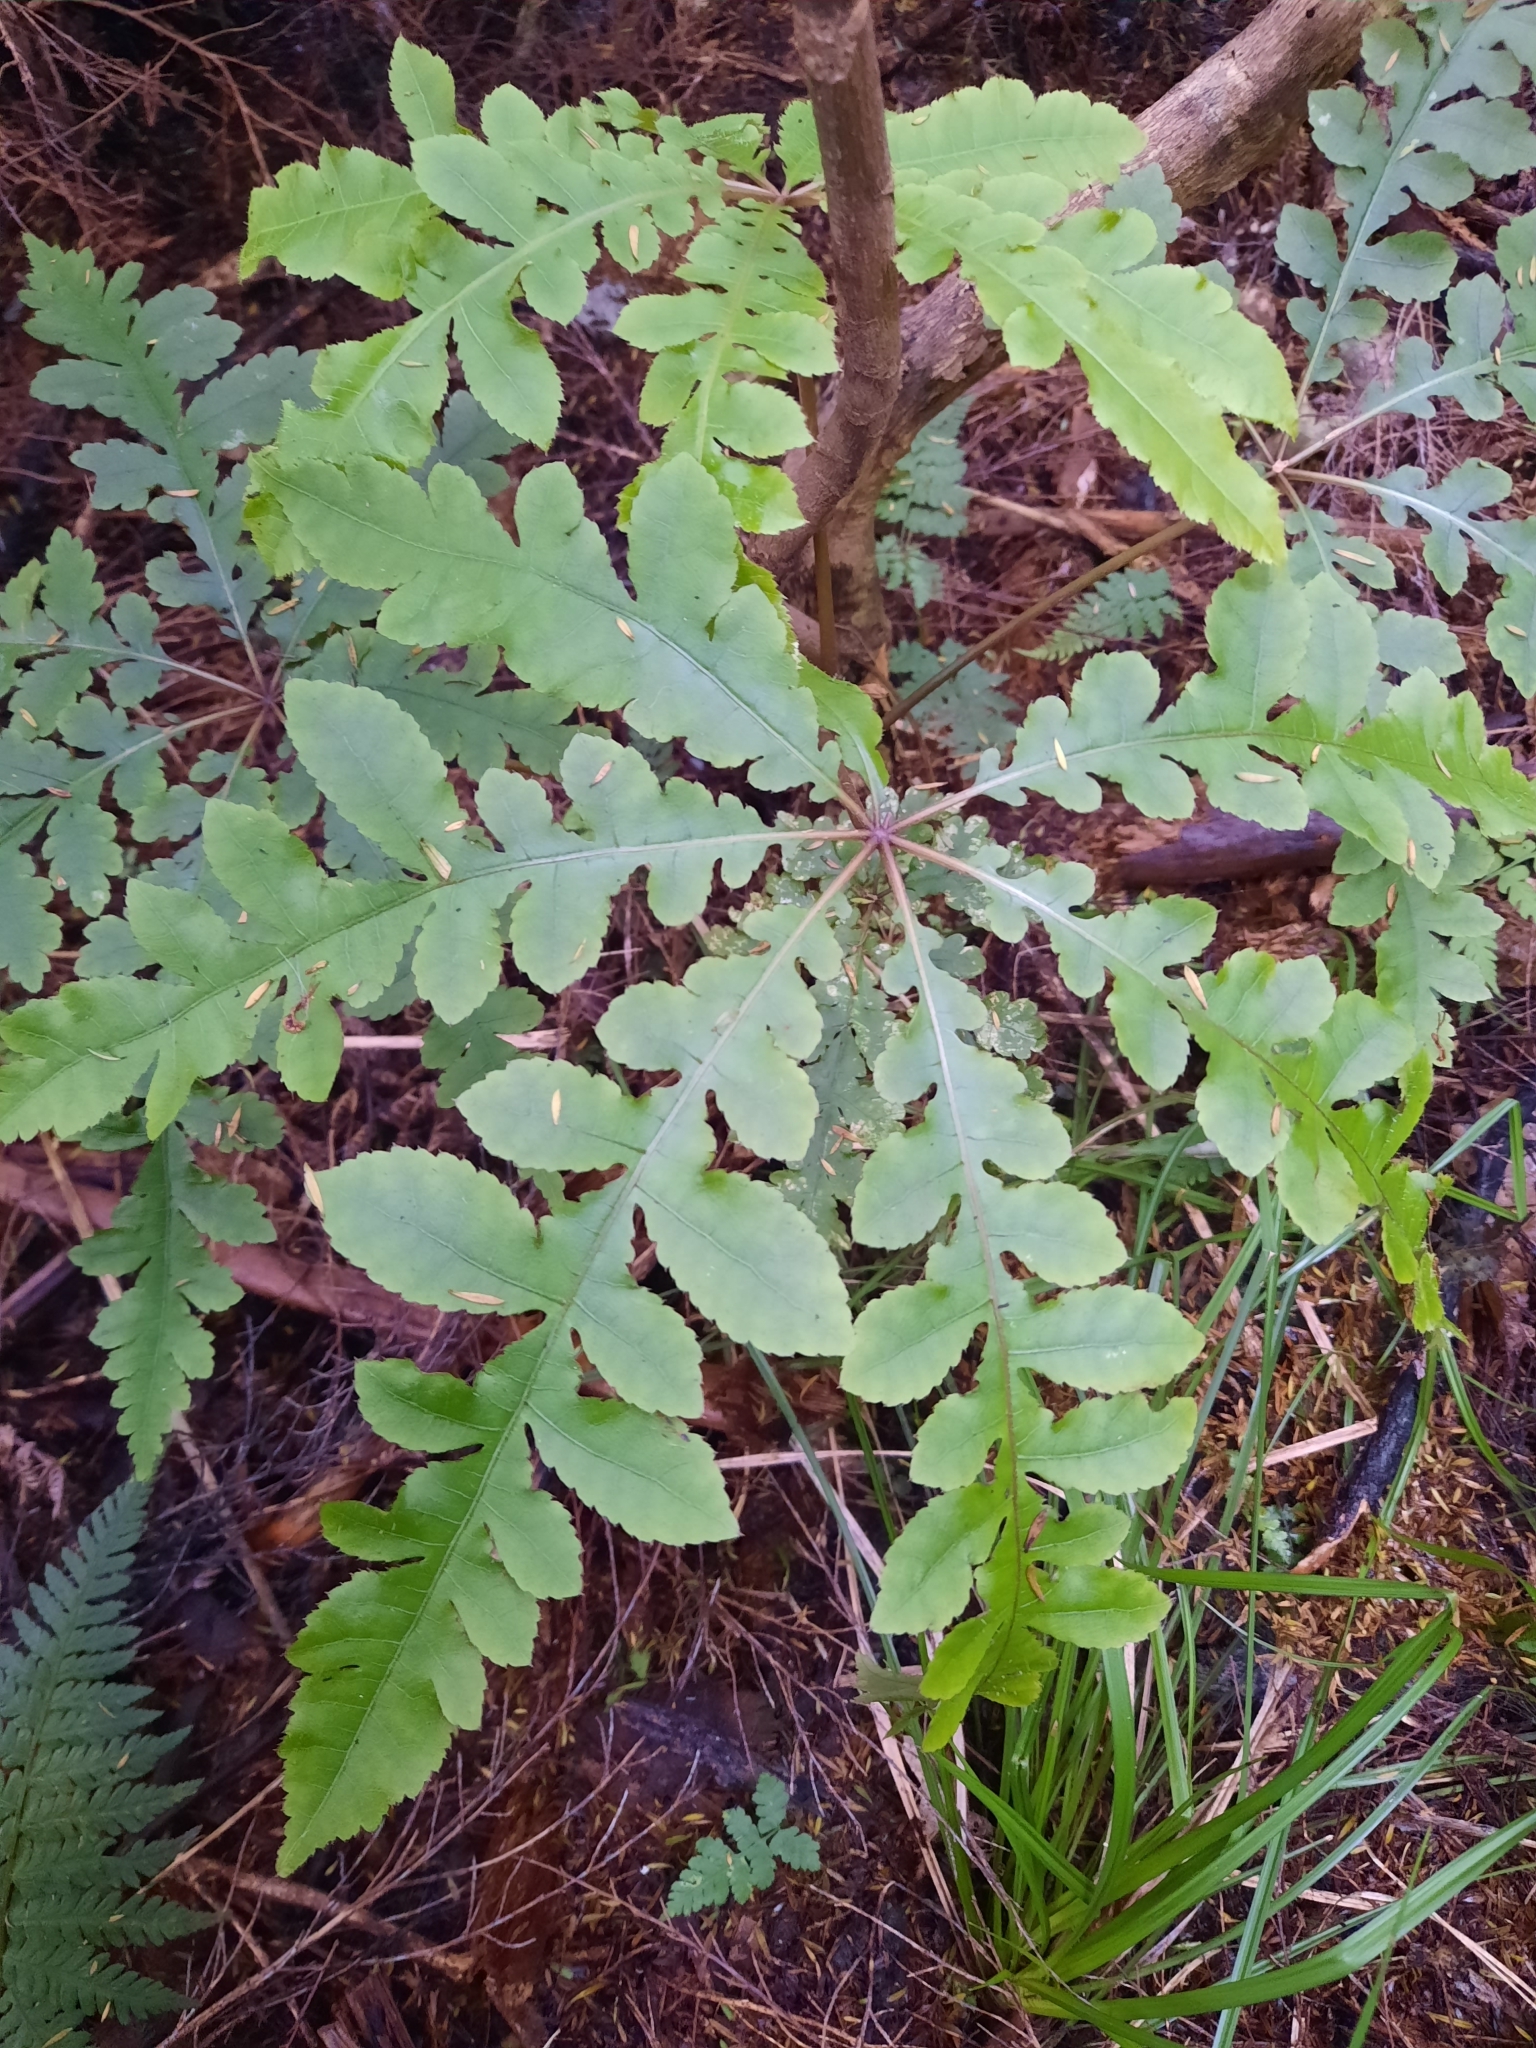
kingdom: Plantae
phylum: Tracheophyta
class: Magnoliopsida
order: Apiales
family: Araliaceae
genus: Schefflera
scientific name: Schefflera digitata
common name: Pate
